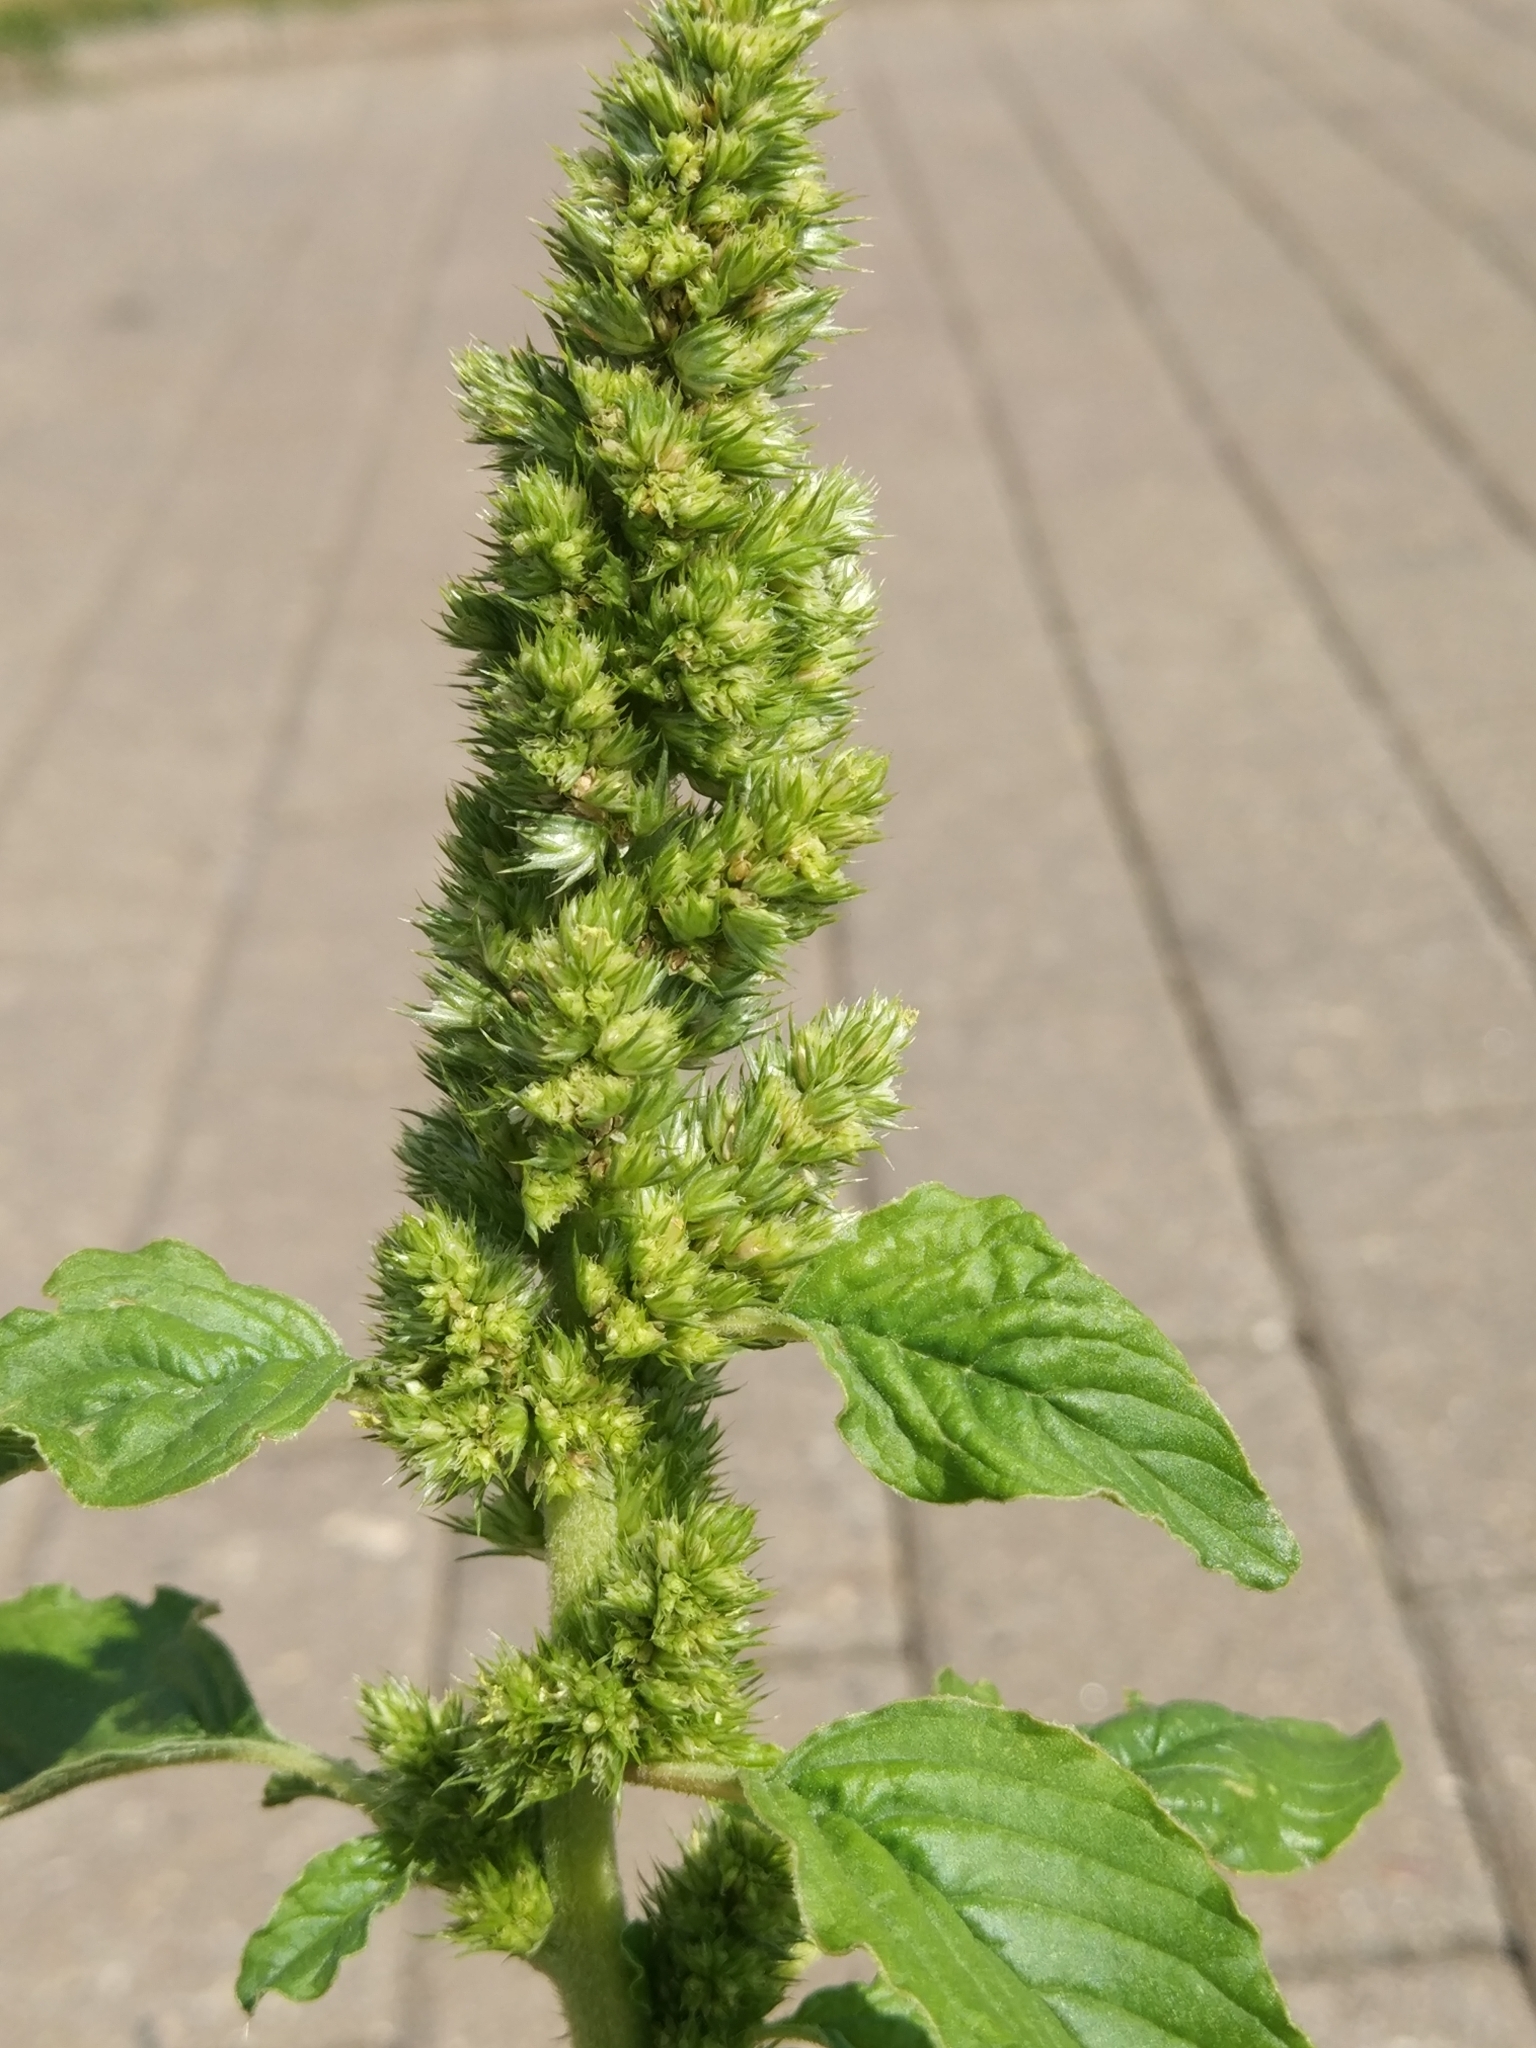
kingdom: Plantae
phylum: Tracheophyta
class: Magnoliopsida
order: Caryophyllales
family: Amaranthaceae
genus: Amaranthus
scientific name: Amaranthus retroflexus
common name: Redroot amaranth
